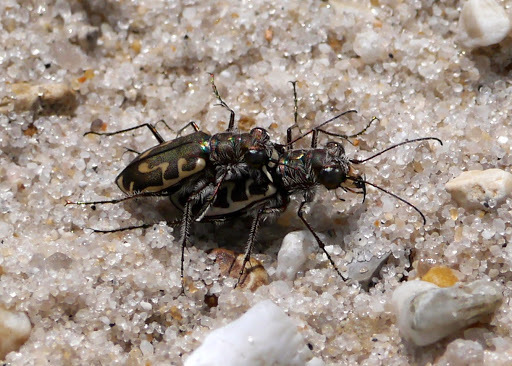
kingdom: Animalia
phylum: Arthropoda
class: Insecta
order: Coleoptera
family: Carabidae
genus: Cicindela
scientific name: Cicindela hirticollis
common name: Hairy-necked tiger beetle
